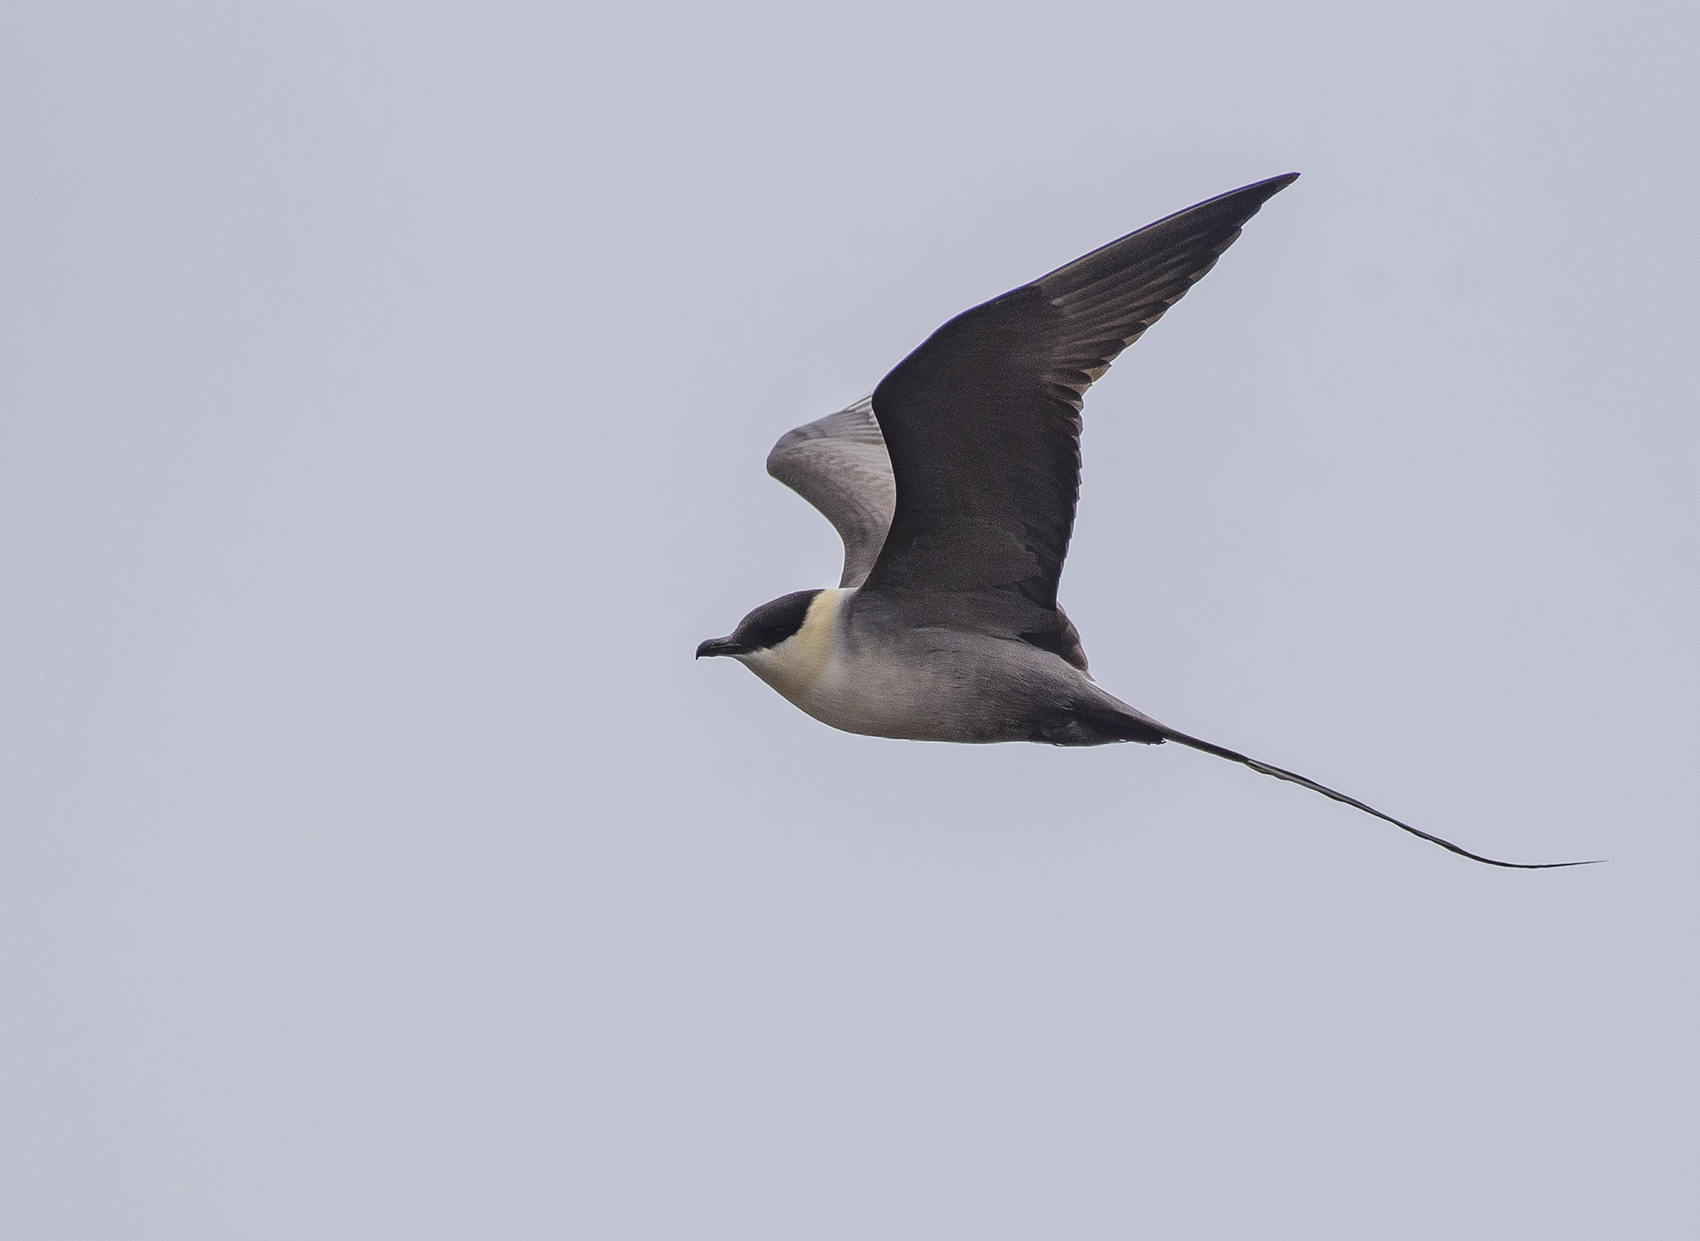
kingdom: Animalia
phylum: Chordata
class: Aves
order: Charadriiformes
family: Stercorariidae
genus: Stercorarius
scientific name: Stercorarius longicaudus
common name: Long-tailed jaeger
